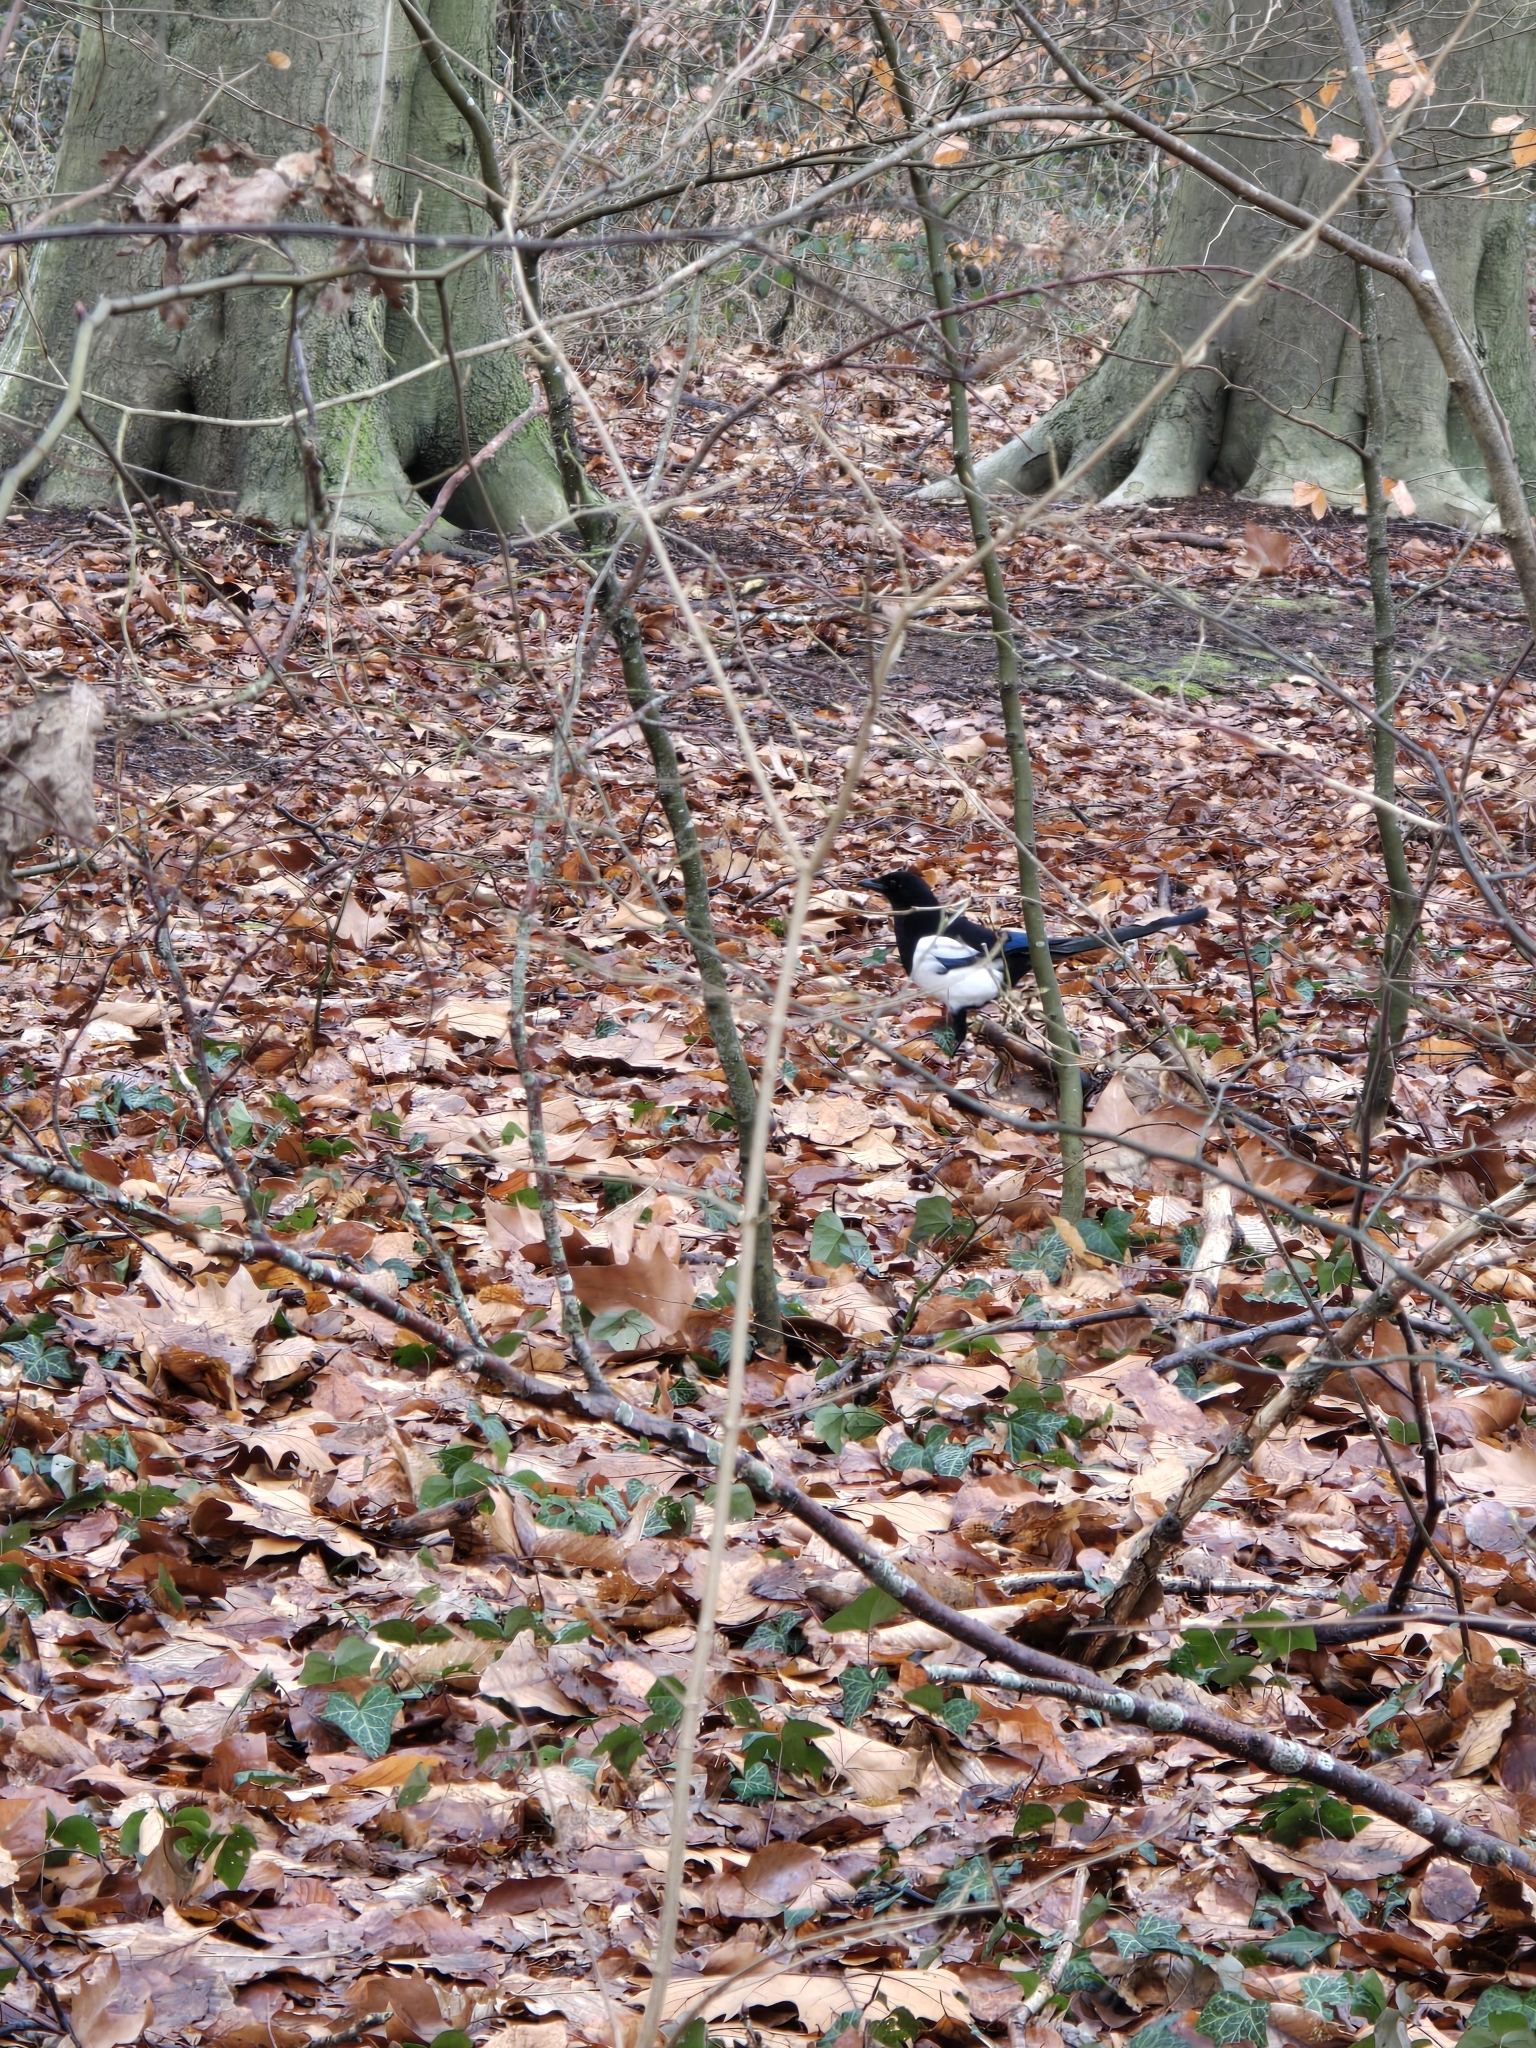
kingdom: Animalia
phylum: Chordata
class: Aves
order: Passeriformes
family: Corvidae
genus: Pica
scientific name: Pica pica
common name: Eurasian magpie
